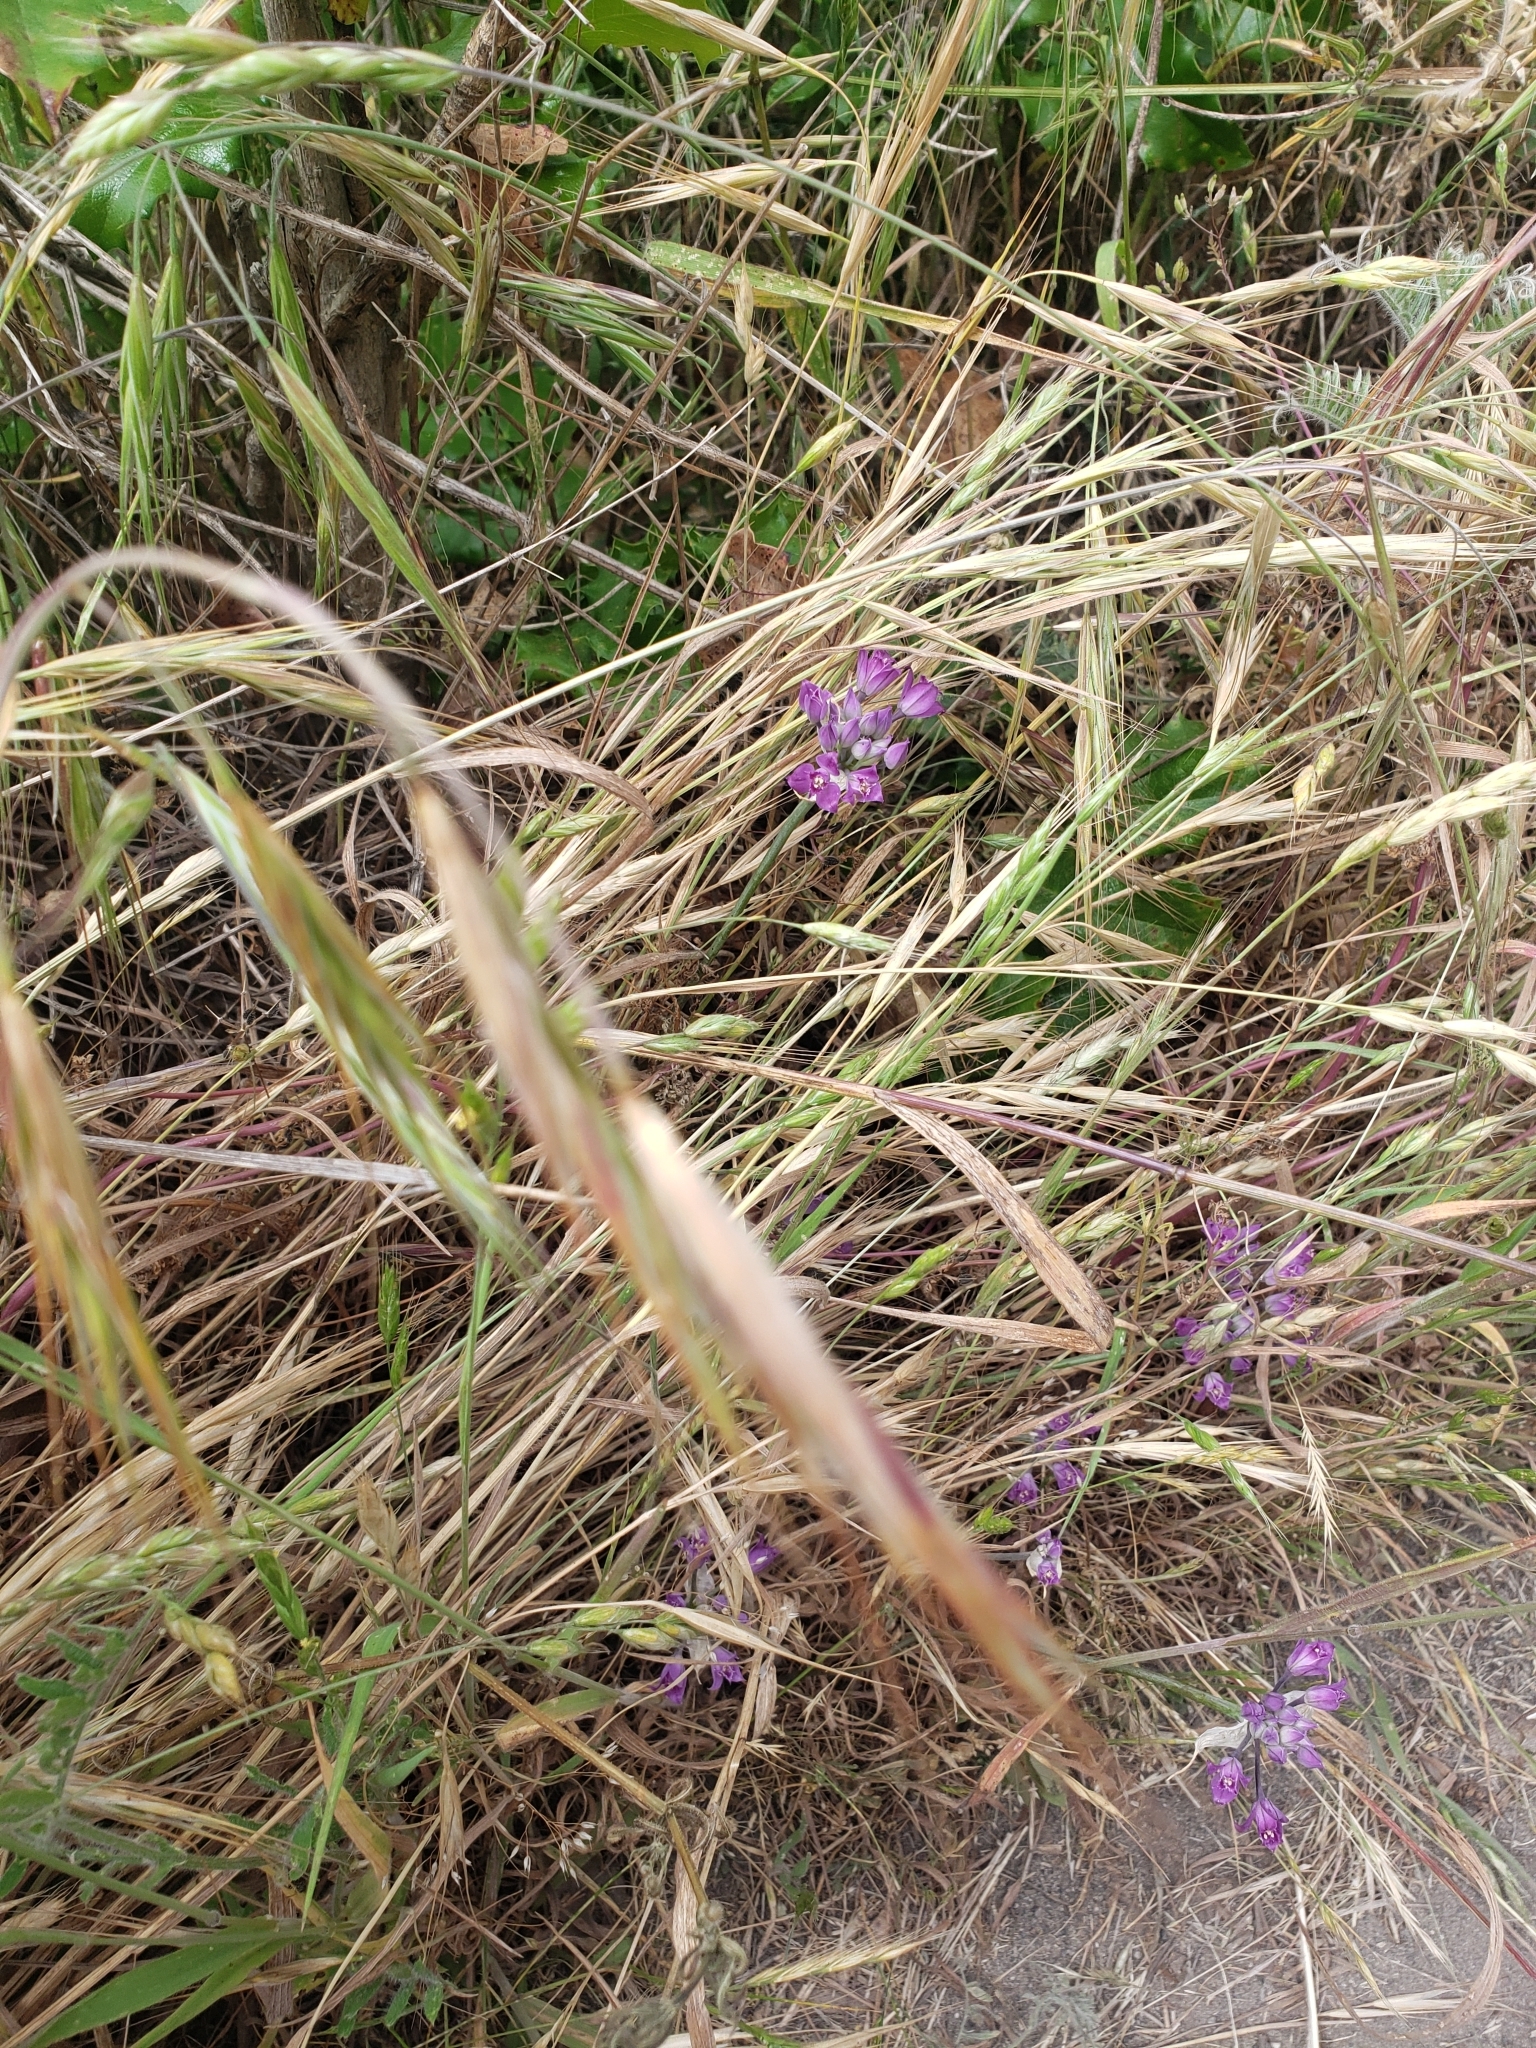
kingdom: Plantae
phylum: Tracheophyta
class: Liliopsida
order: Asparagales
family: Amaryllidaceae
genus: Allium
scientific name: Allium acuminatum
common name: Hooker's onion
